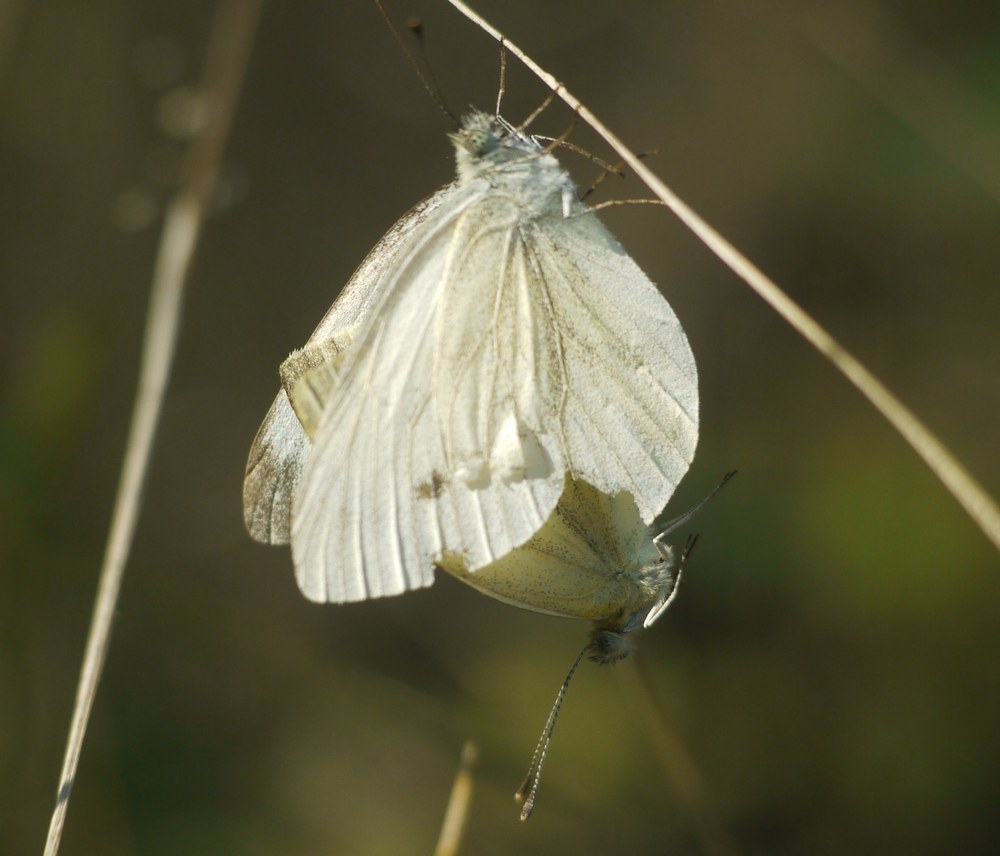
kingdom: Animalia
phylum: Arthropoda
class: Insecta
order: Lepidoptera
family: Pieridae
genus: Pieris
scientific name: Pieris napi
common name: Green-veined white
